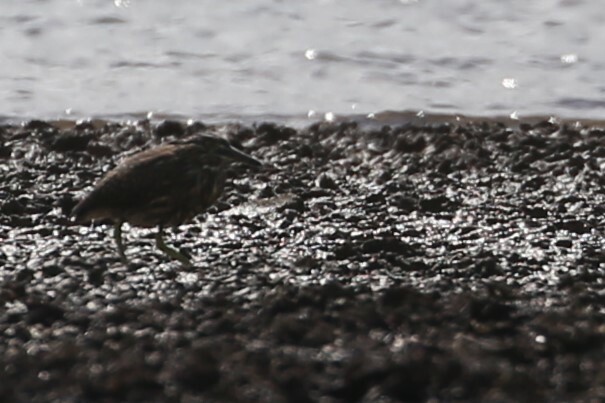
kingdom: Animalia
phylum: Chordata
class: Aves
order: Pelecaniformes
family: Ardeidae
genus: Butorides
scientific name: Butorides striata
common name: Striated heron
